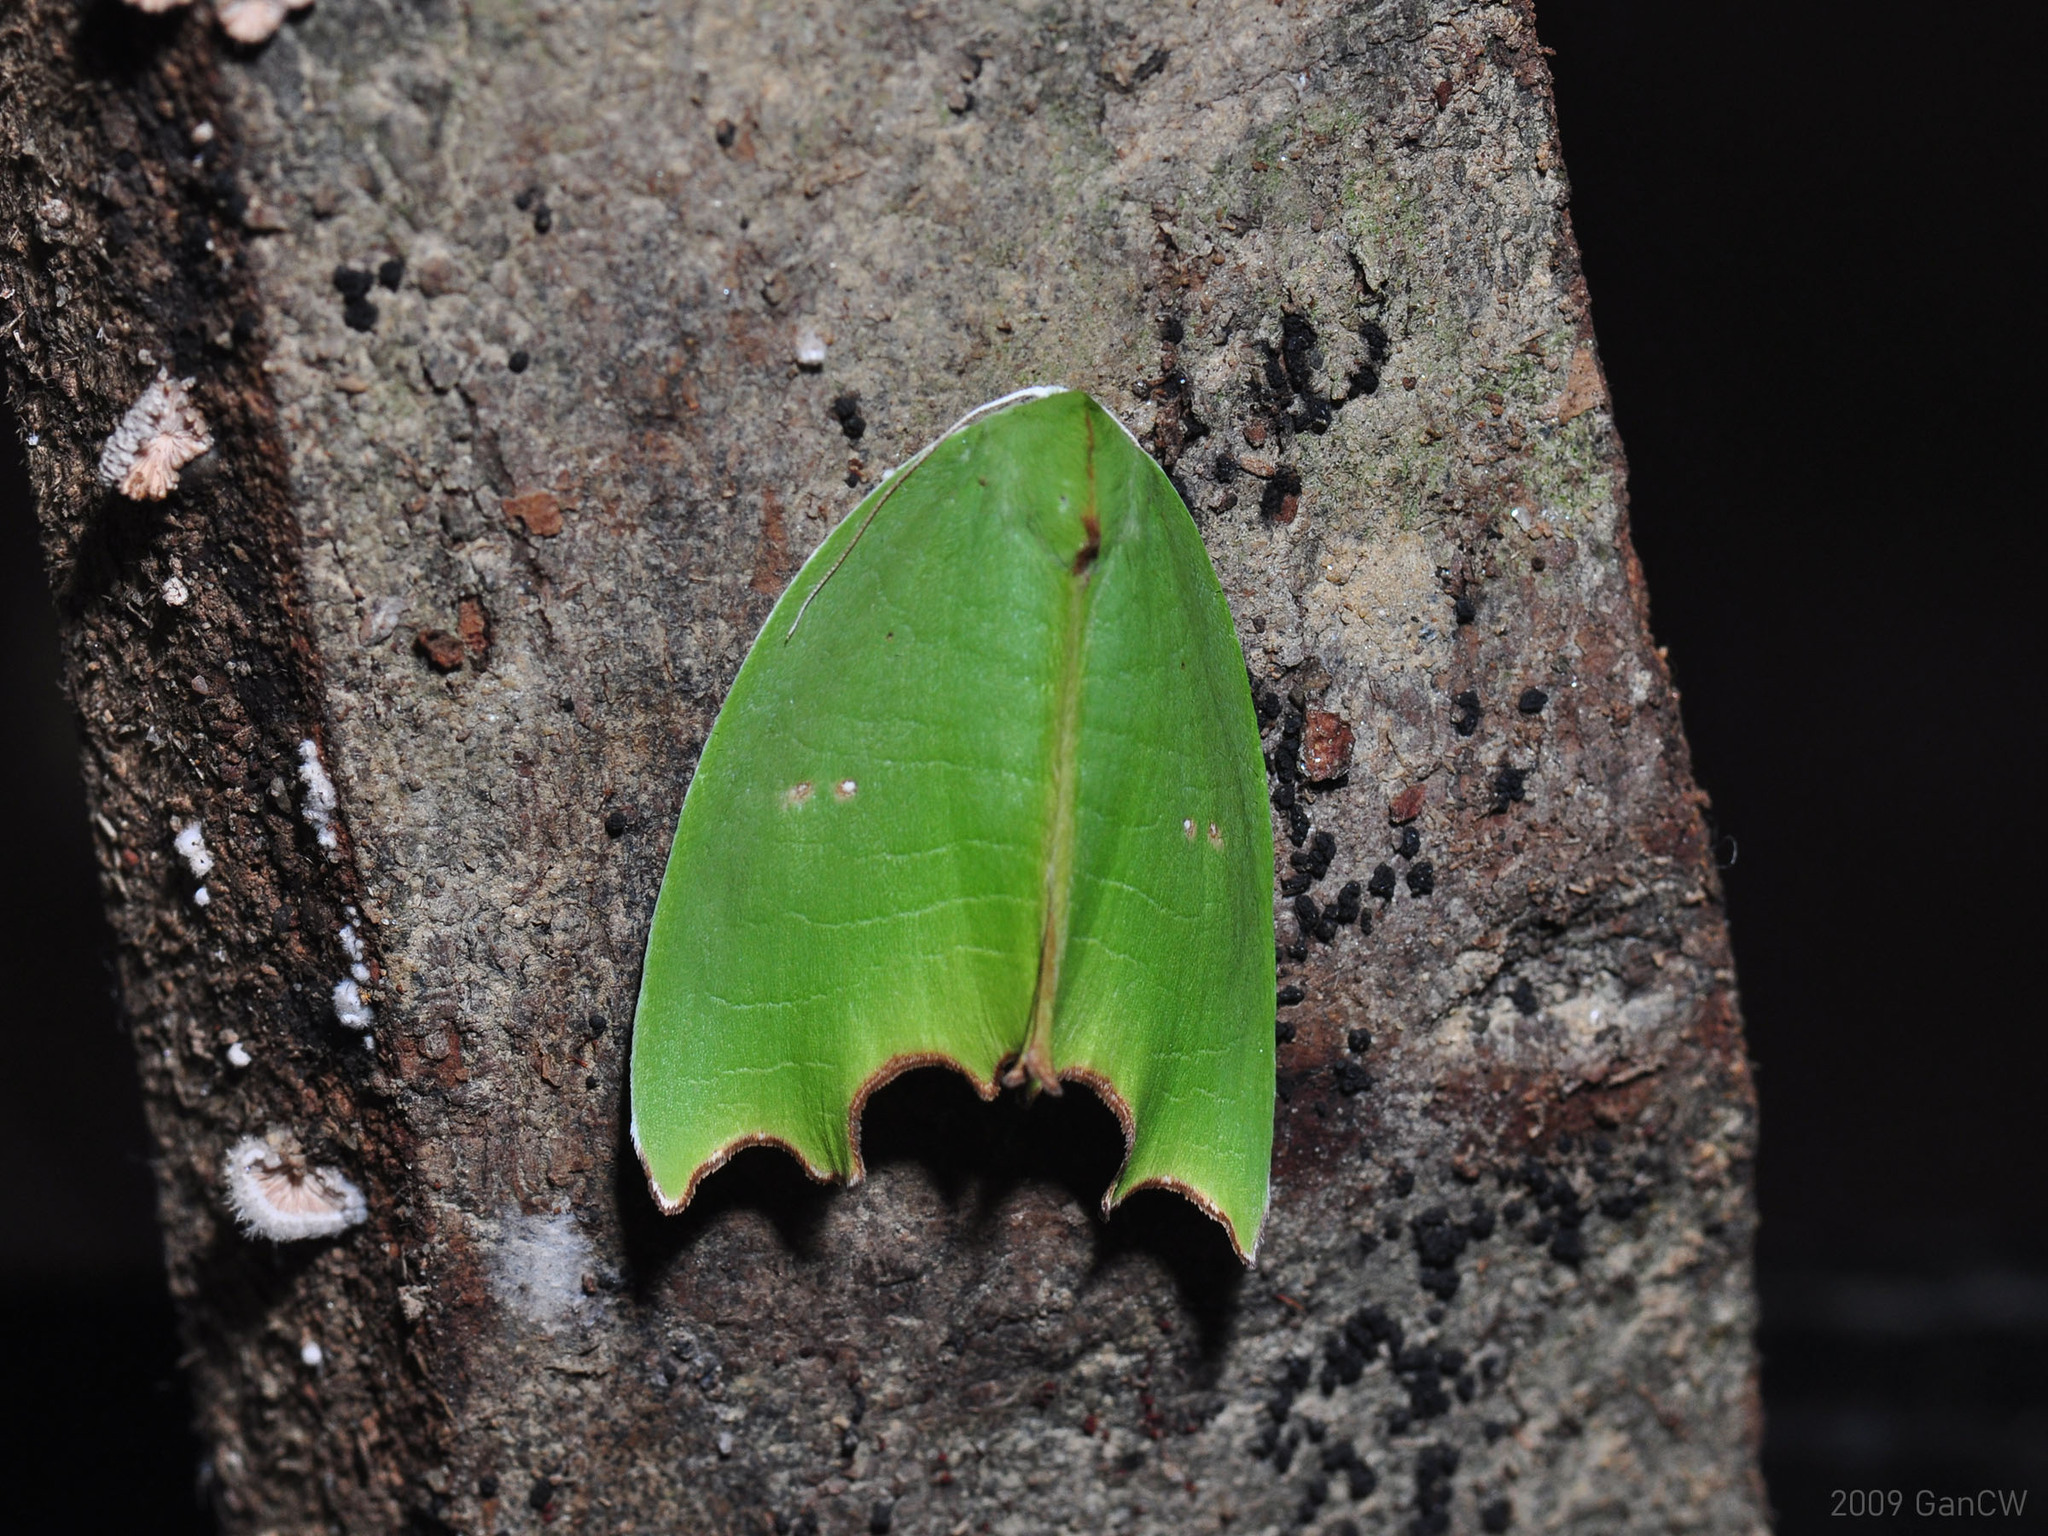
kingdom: Animalia
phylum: Arthropoda
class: Insecta
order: Lepidoptera
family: Noctuidae
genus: Plagerepne
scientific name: Plagerepne torquata
